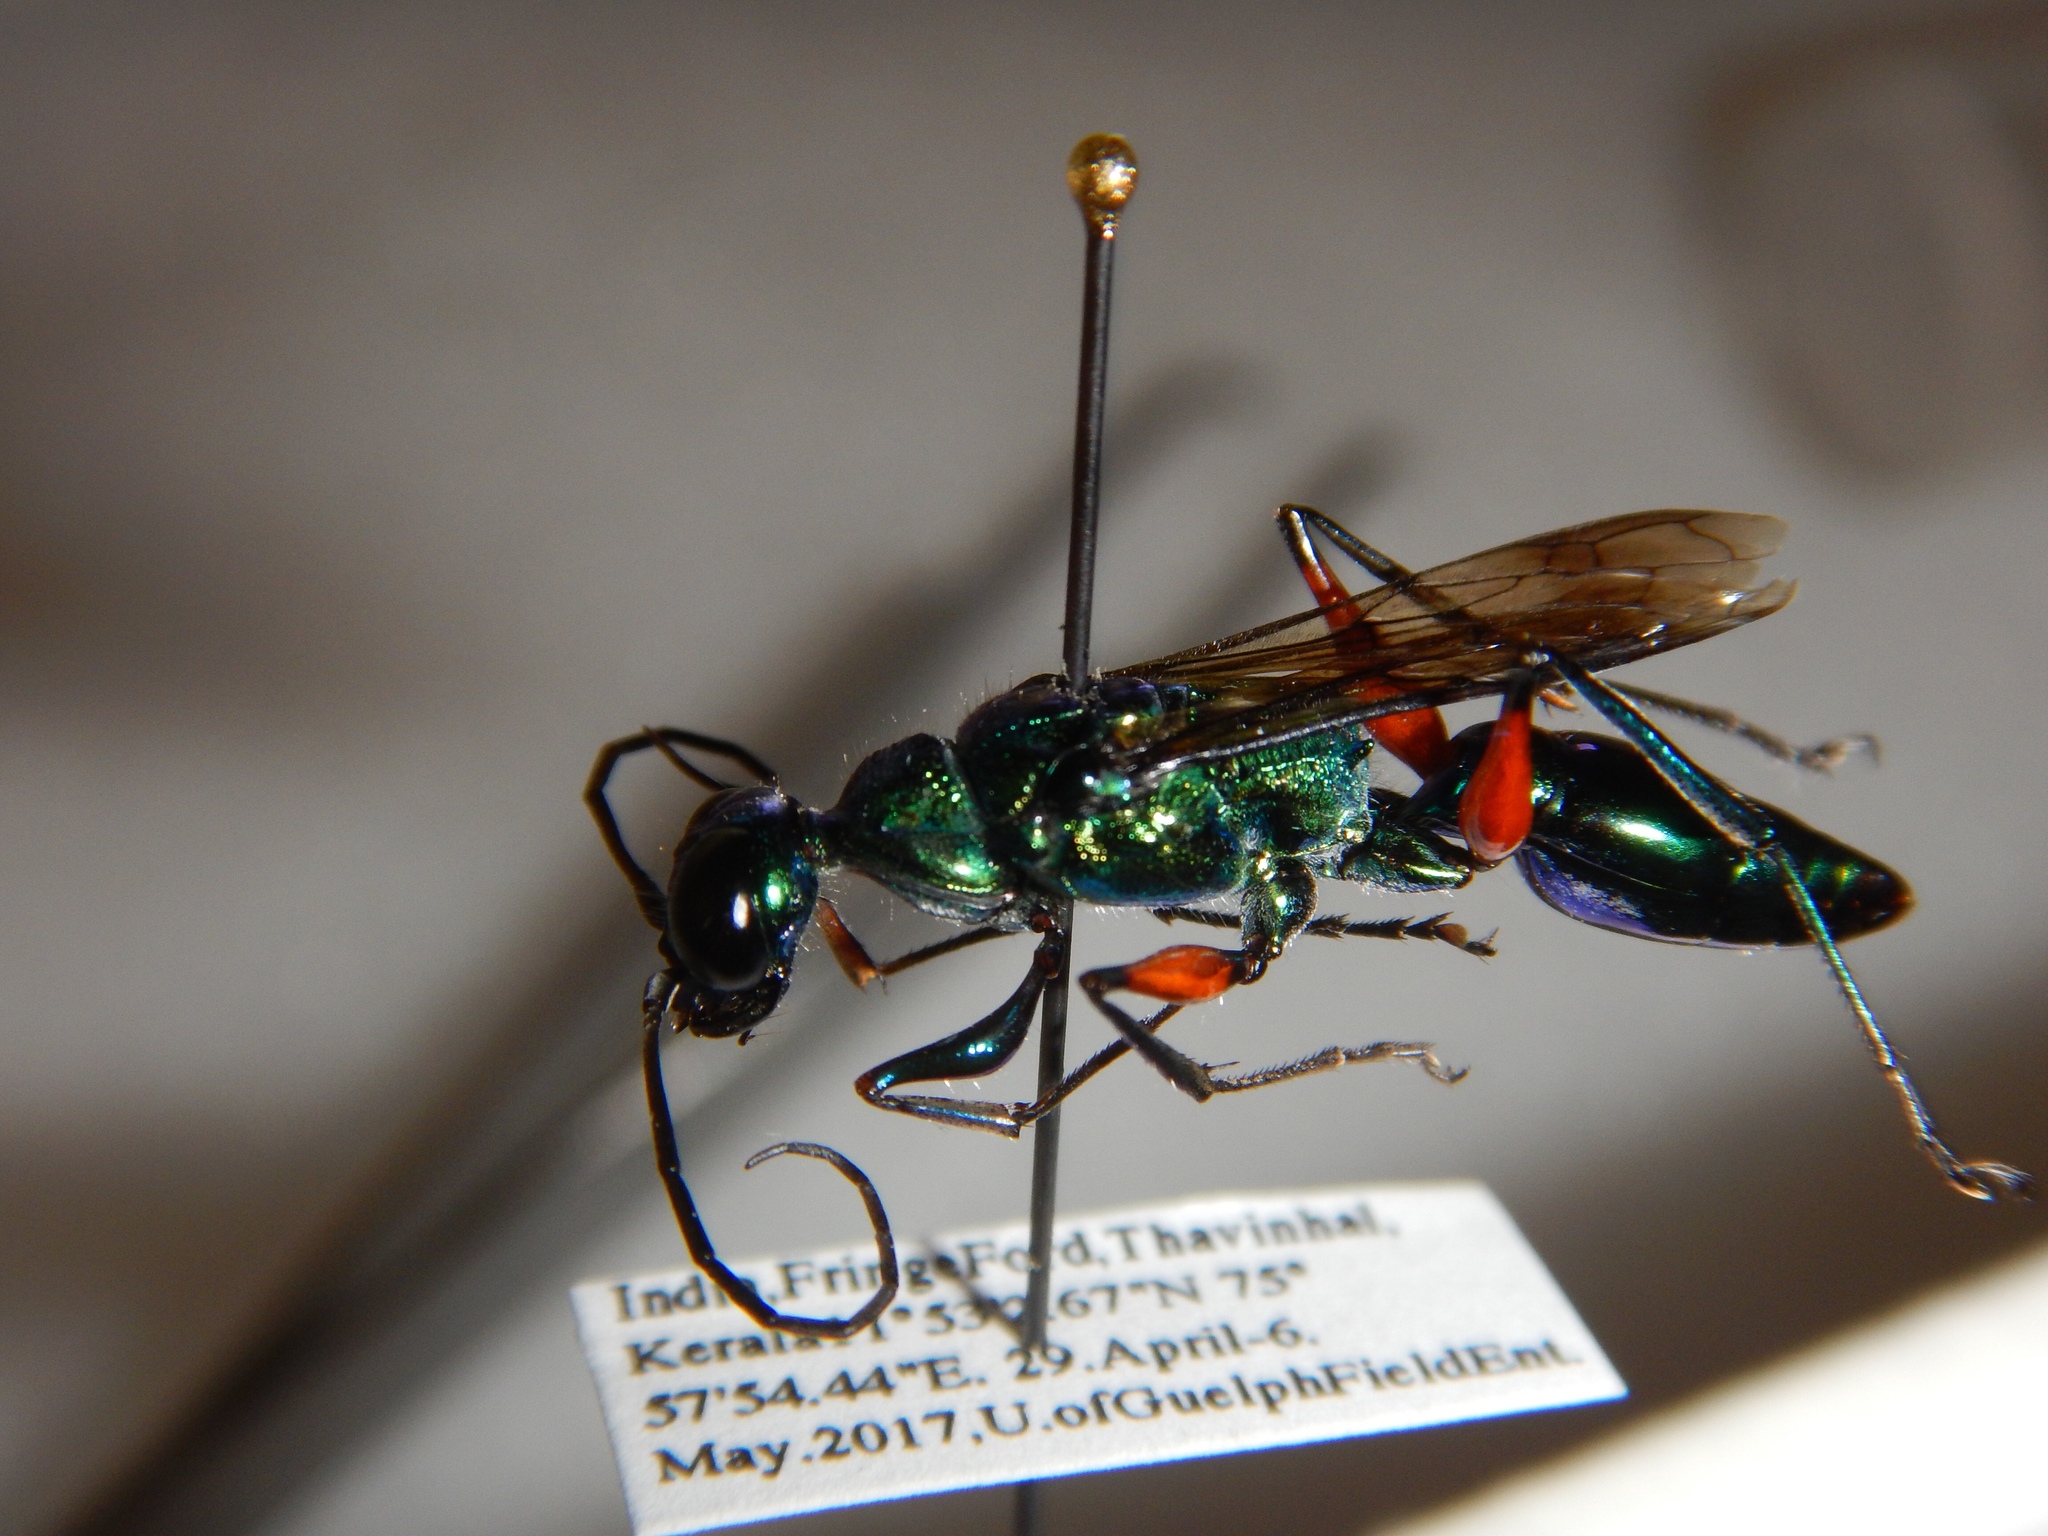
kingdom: Animalia
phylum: Arthropoda
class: Insecta
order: Hymenoptera
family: Ampulicidae
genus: Ampulex
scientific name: Ampulex compressa
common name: Emerald cockroach wasp
